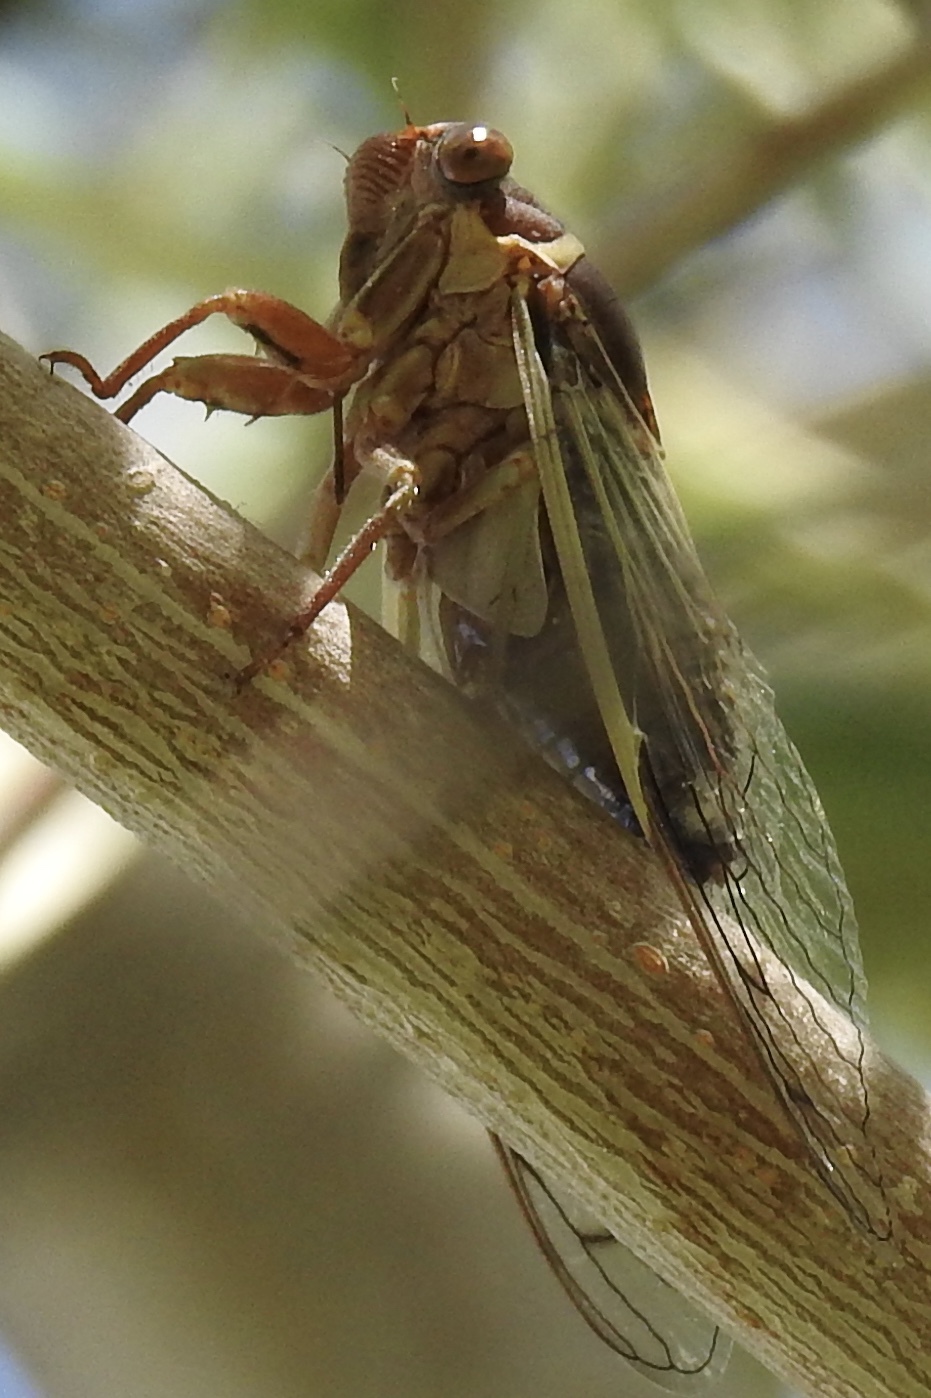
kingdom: Animalia
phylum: Arthropoda
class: Insecta
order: Hemiptera
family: Cicadidae
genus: Diceroprocta
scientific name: Diceroprocta apache
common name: Desert cicada
